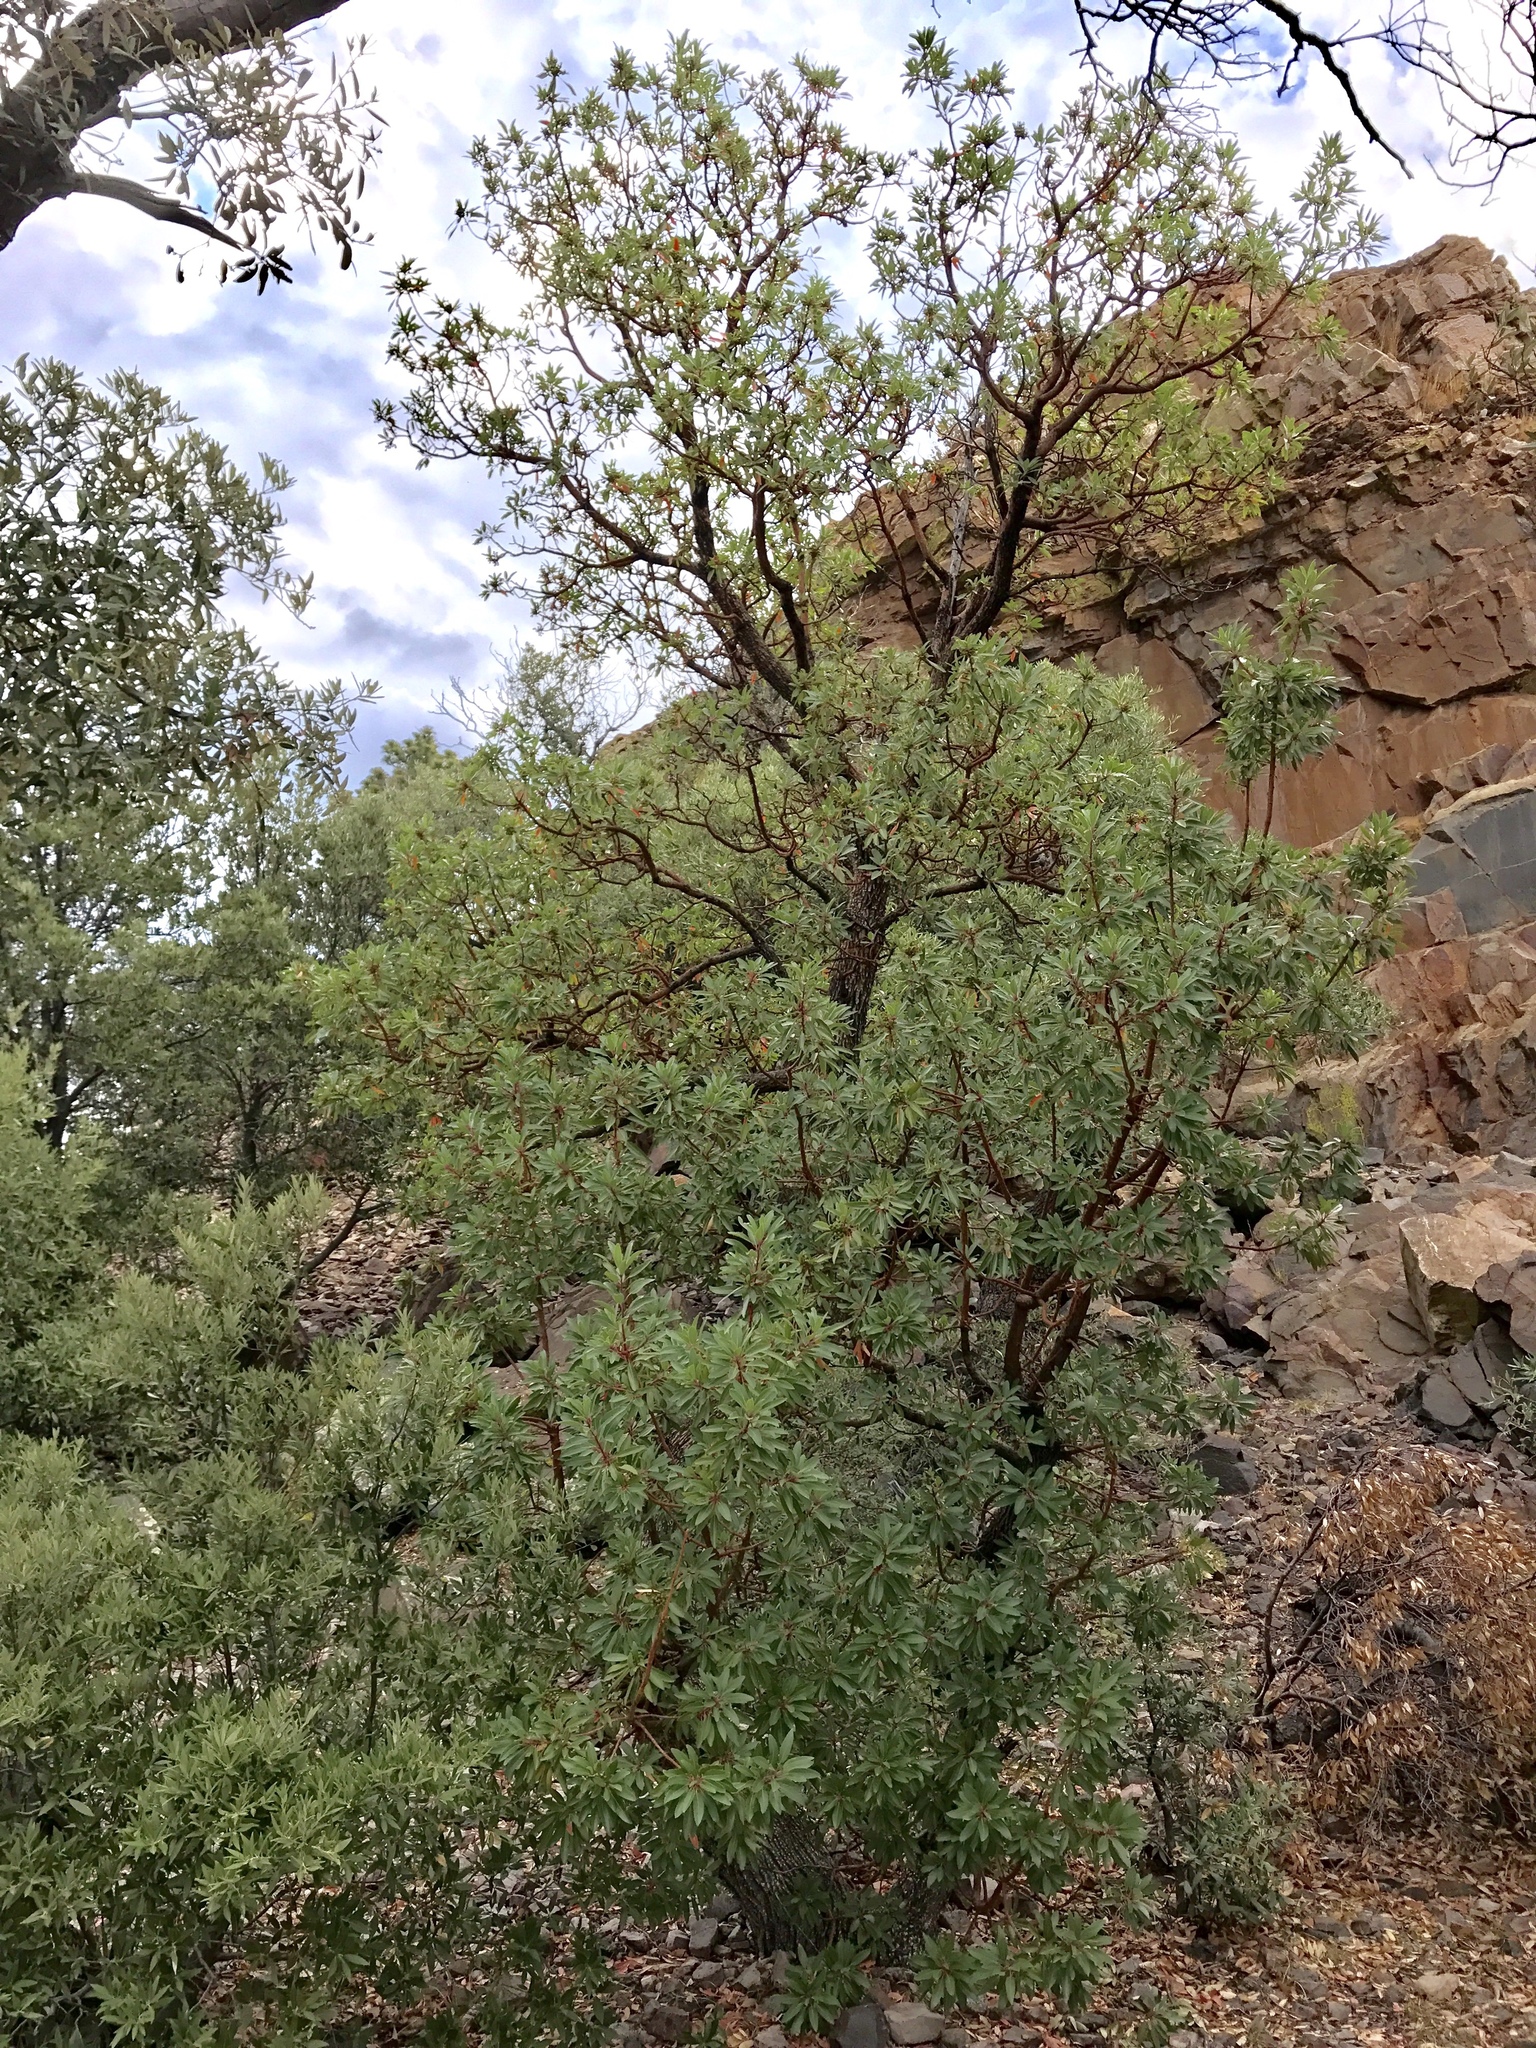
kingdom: Plantae
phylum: Tracheophyta
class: Magnoliopsida
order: Ericales
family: Ericaceae
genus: Arbutus
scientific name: Arbutus arizonica
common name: Arizona madrone
